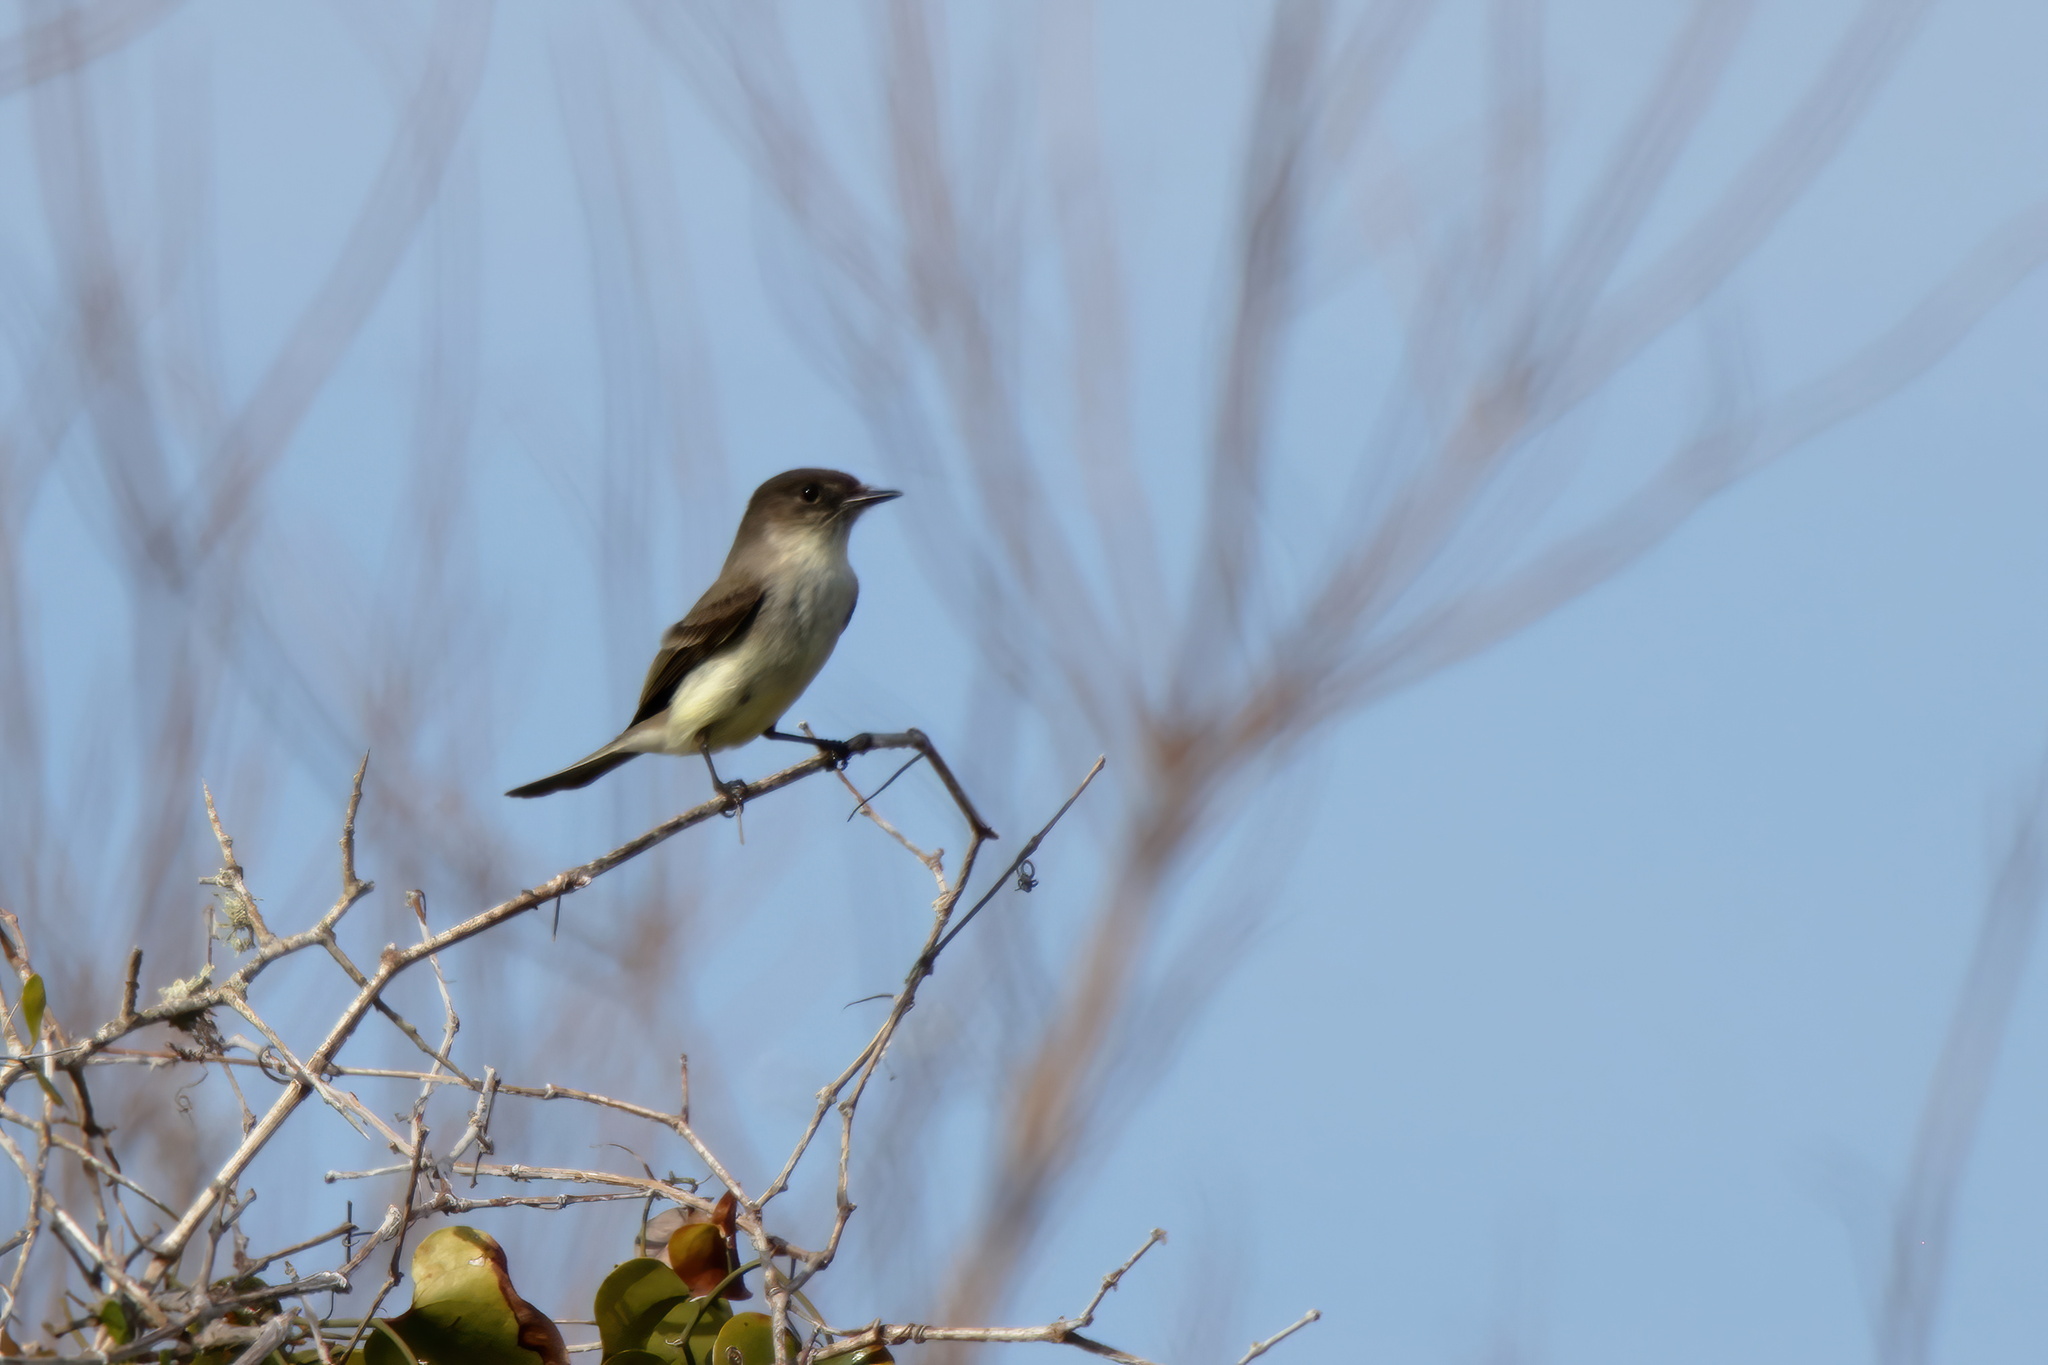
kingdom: Animalia
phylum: Chordata
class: Aves
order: Passeriformes
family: Tyrannidae
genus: Sayornis
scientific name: Sayornis phoebe
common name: Eastern phoebe
